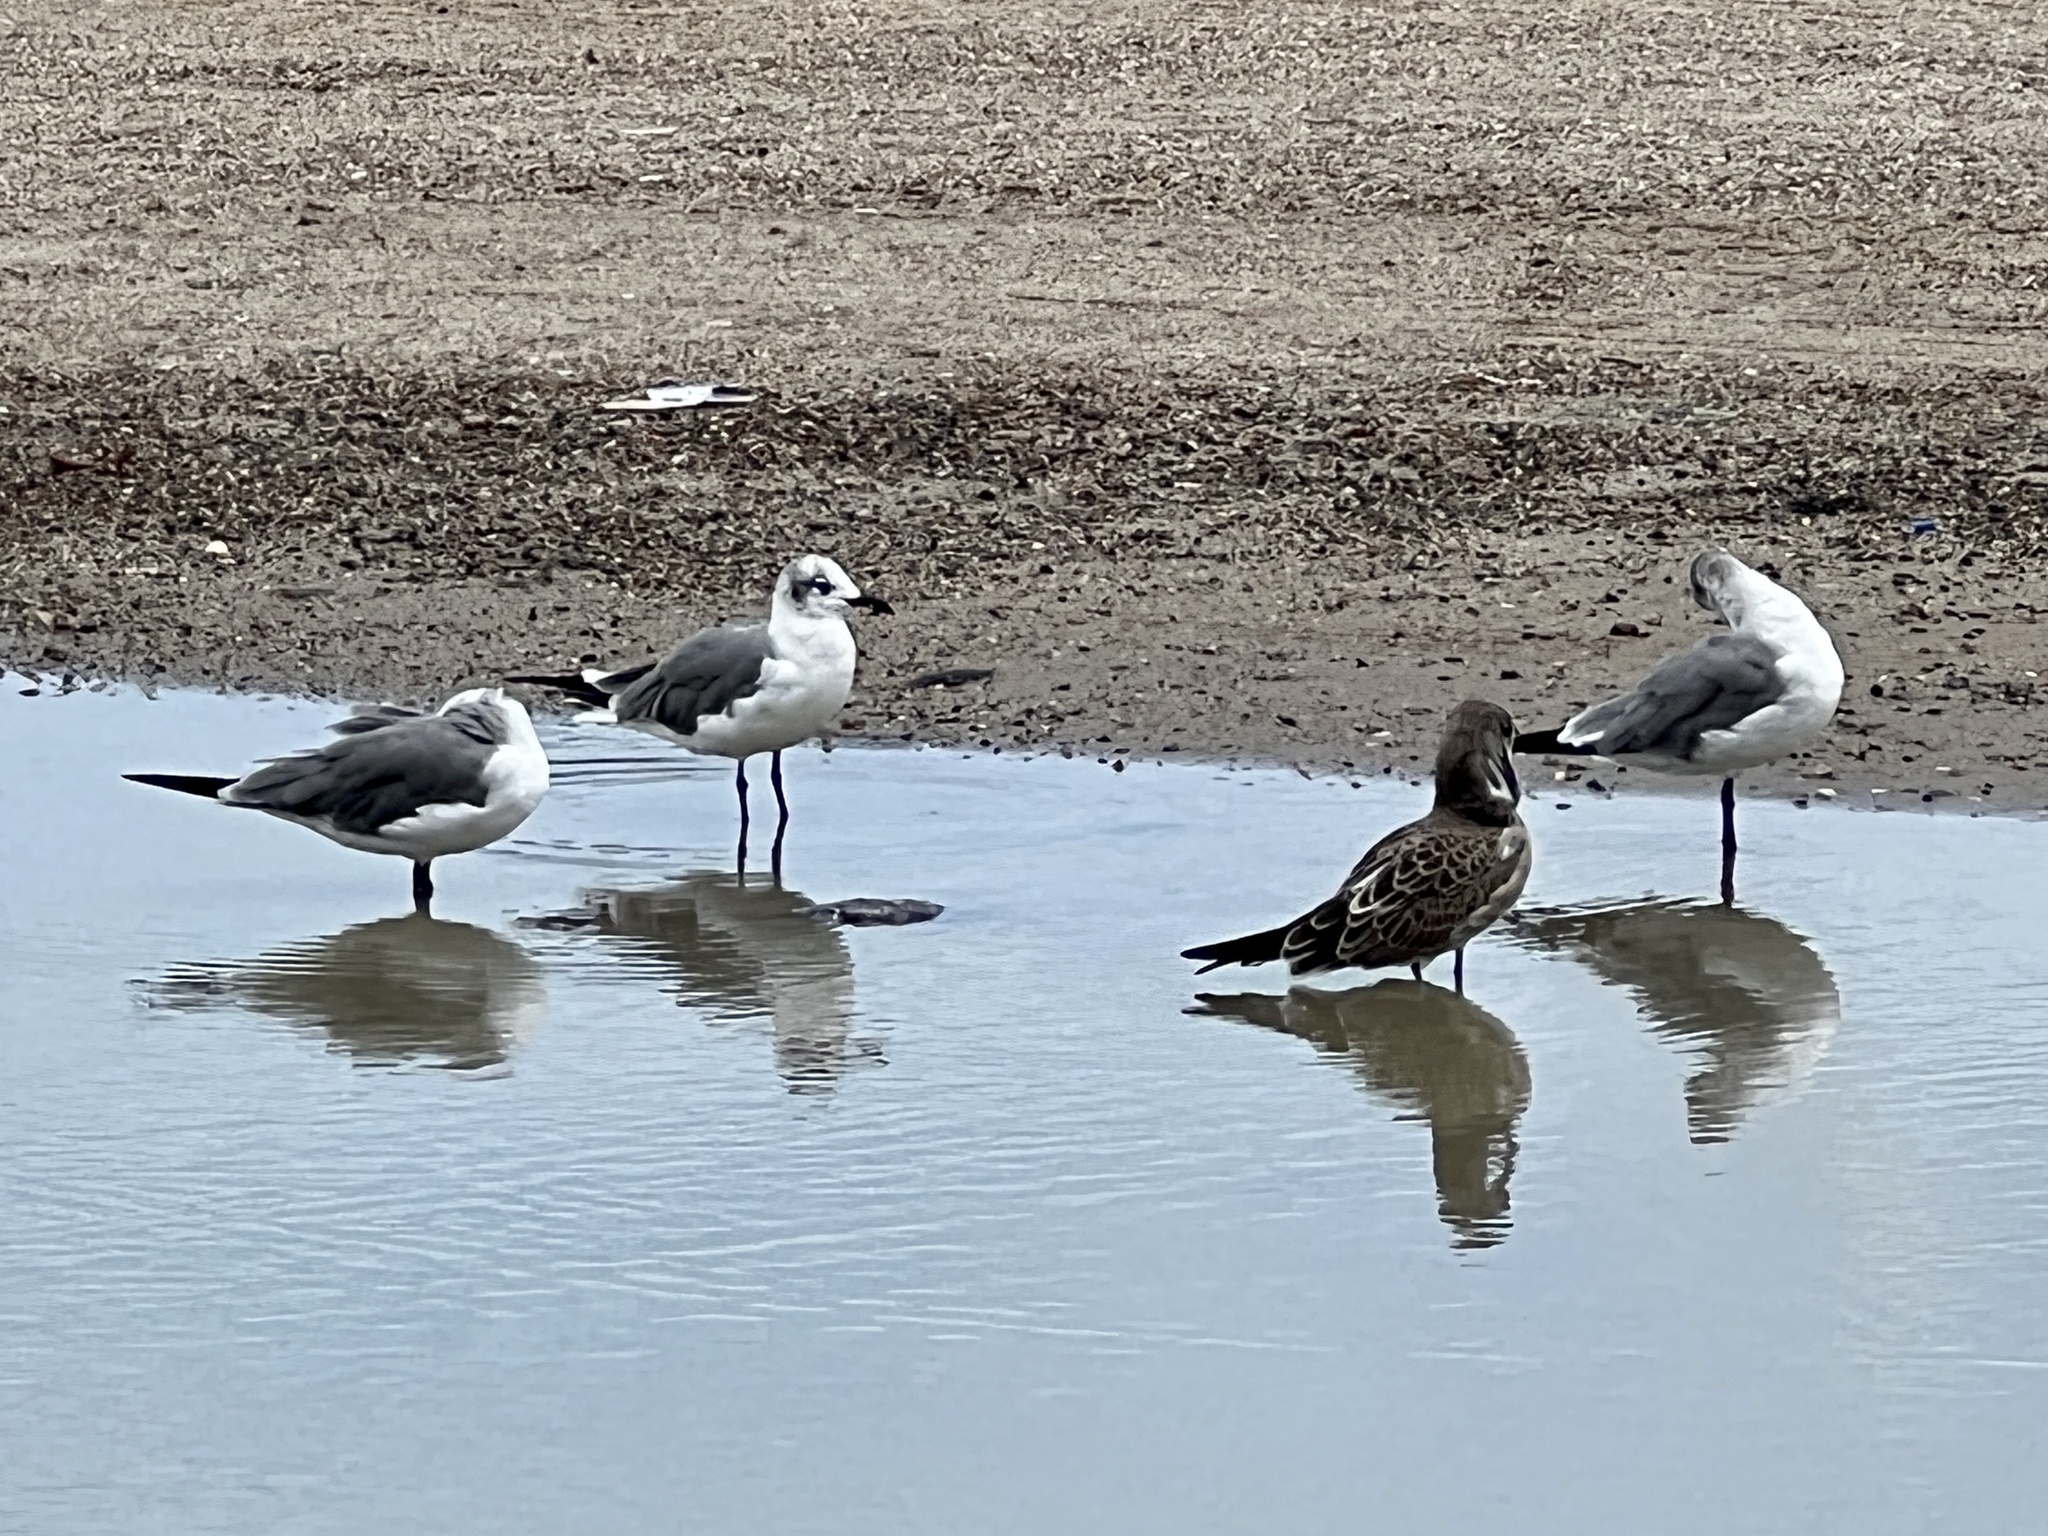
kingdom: Animalia
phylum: Chordata
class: Aves
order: Charadriiformes
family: Laridae
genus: Leucophaeus
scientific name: Leucophaeus atricilla
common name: Laughing gull
